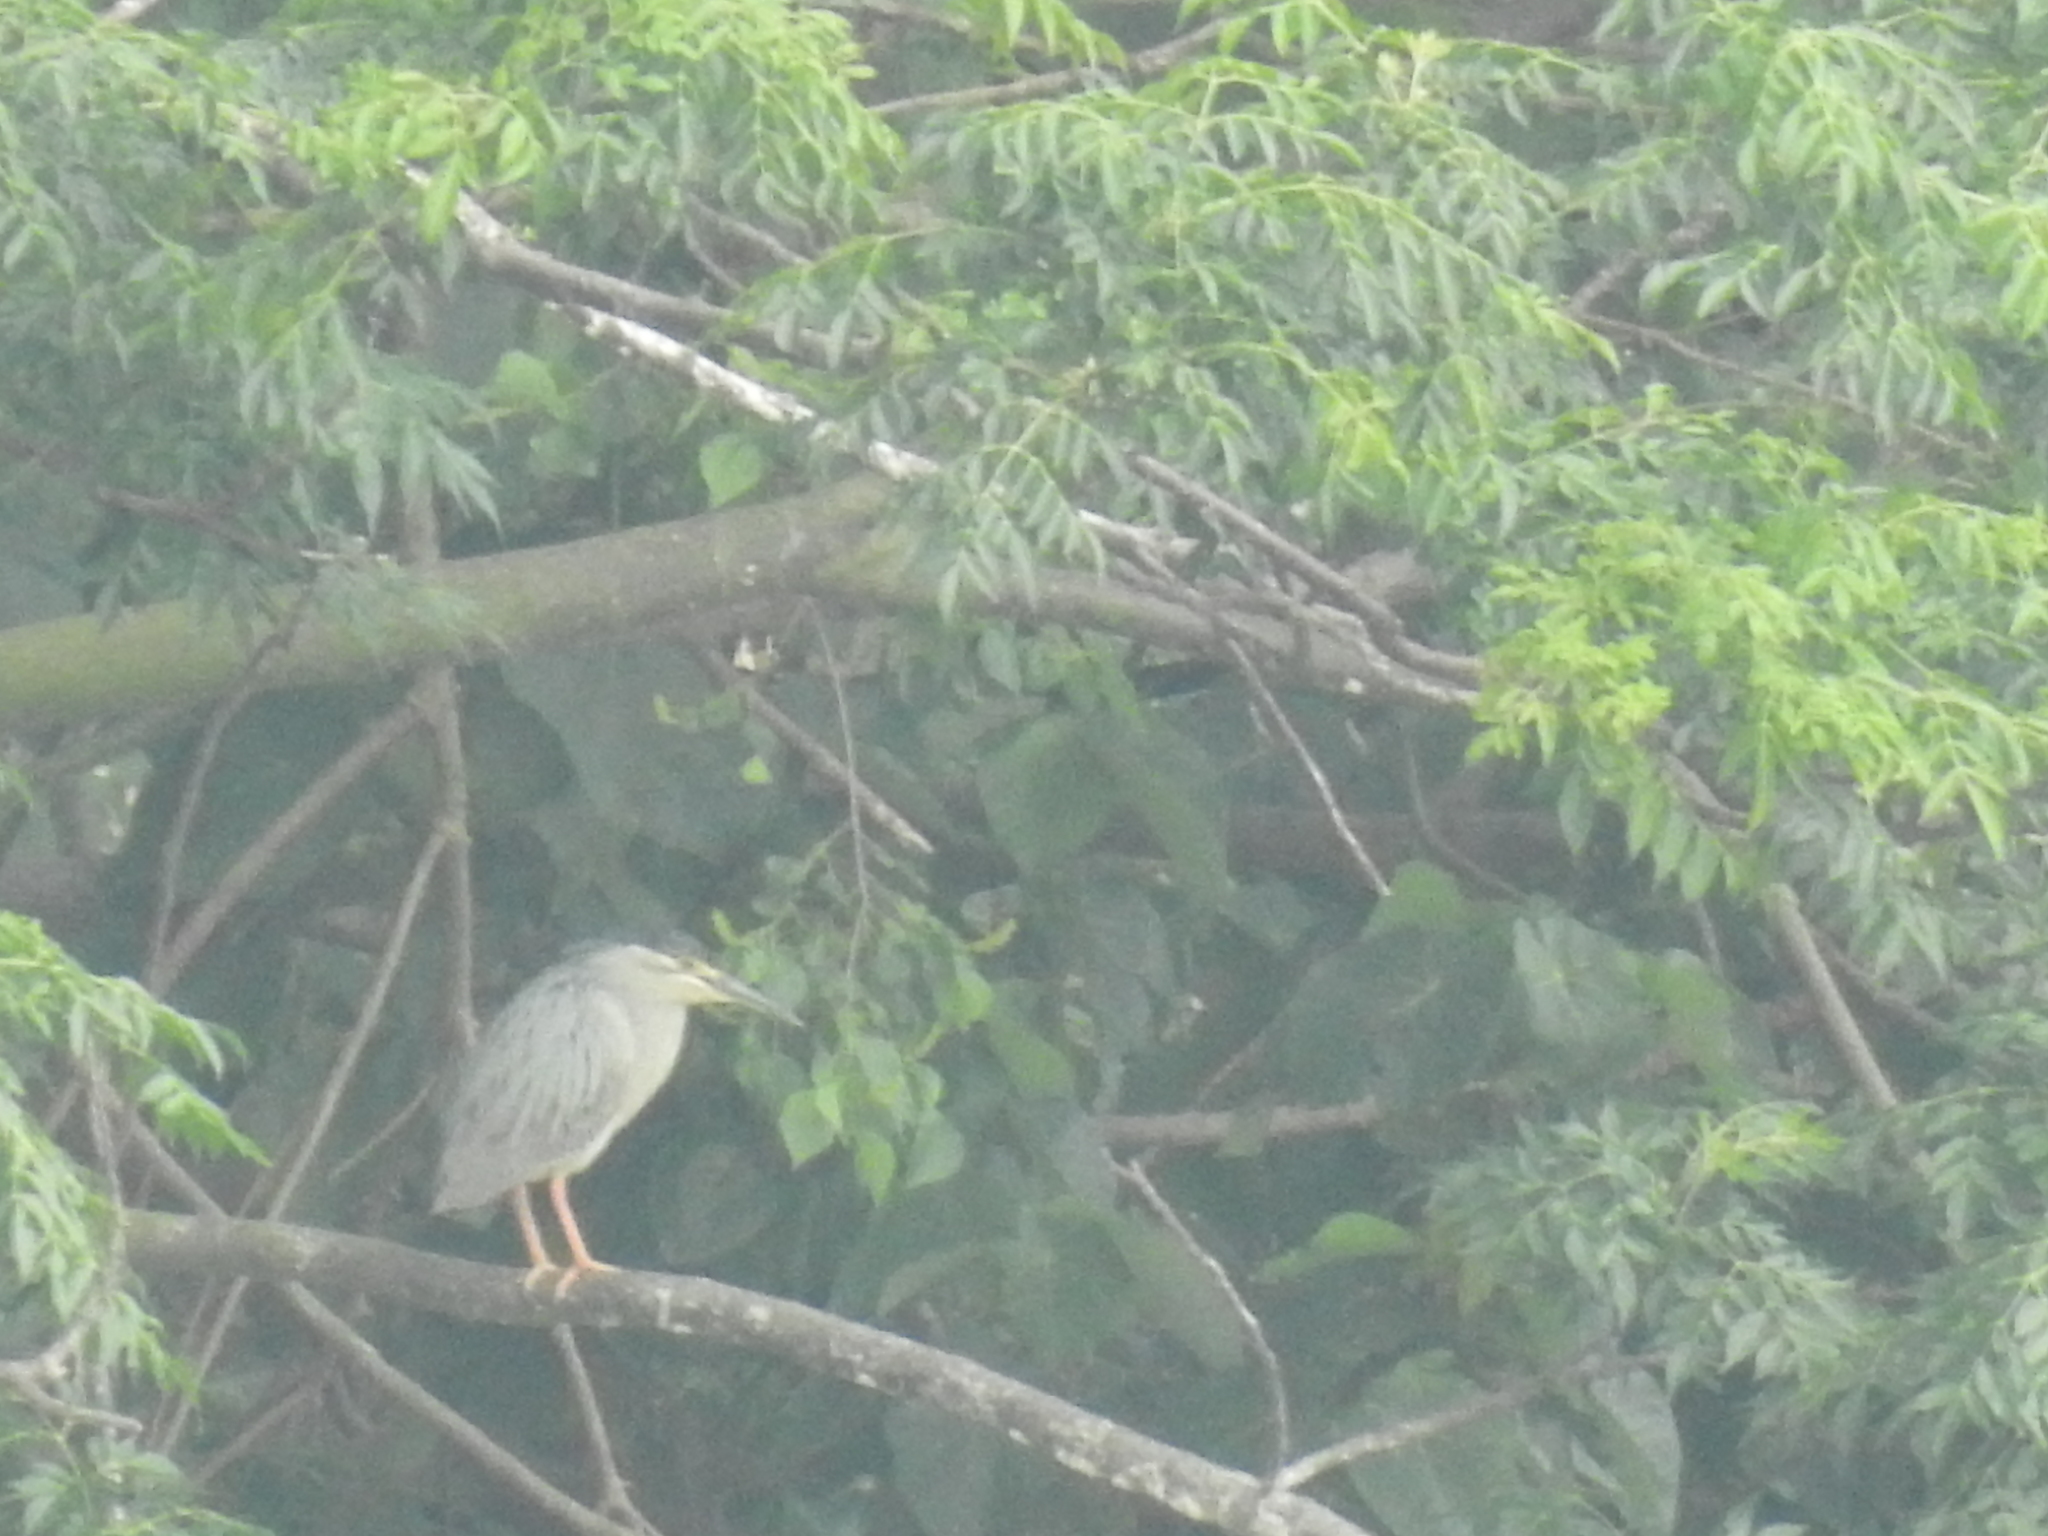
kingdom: Animalia
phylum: Chordata
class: Aves
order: Pelecaniformes
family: Ardeidae
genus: Butorides
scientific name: Butorides striata
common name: Striated heron
